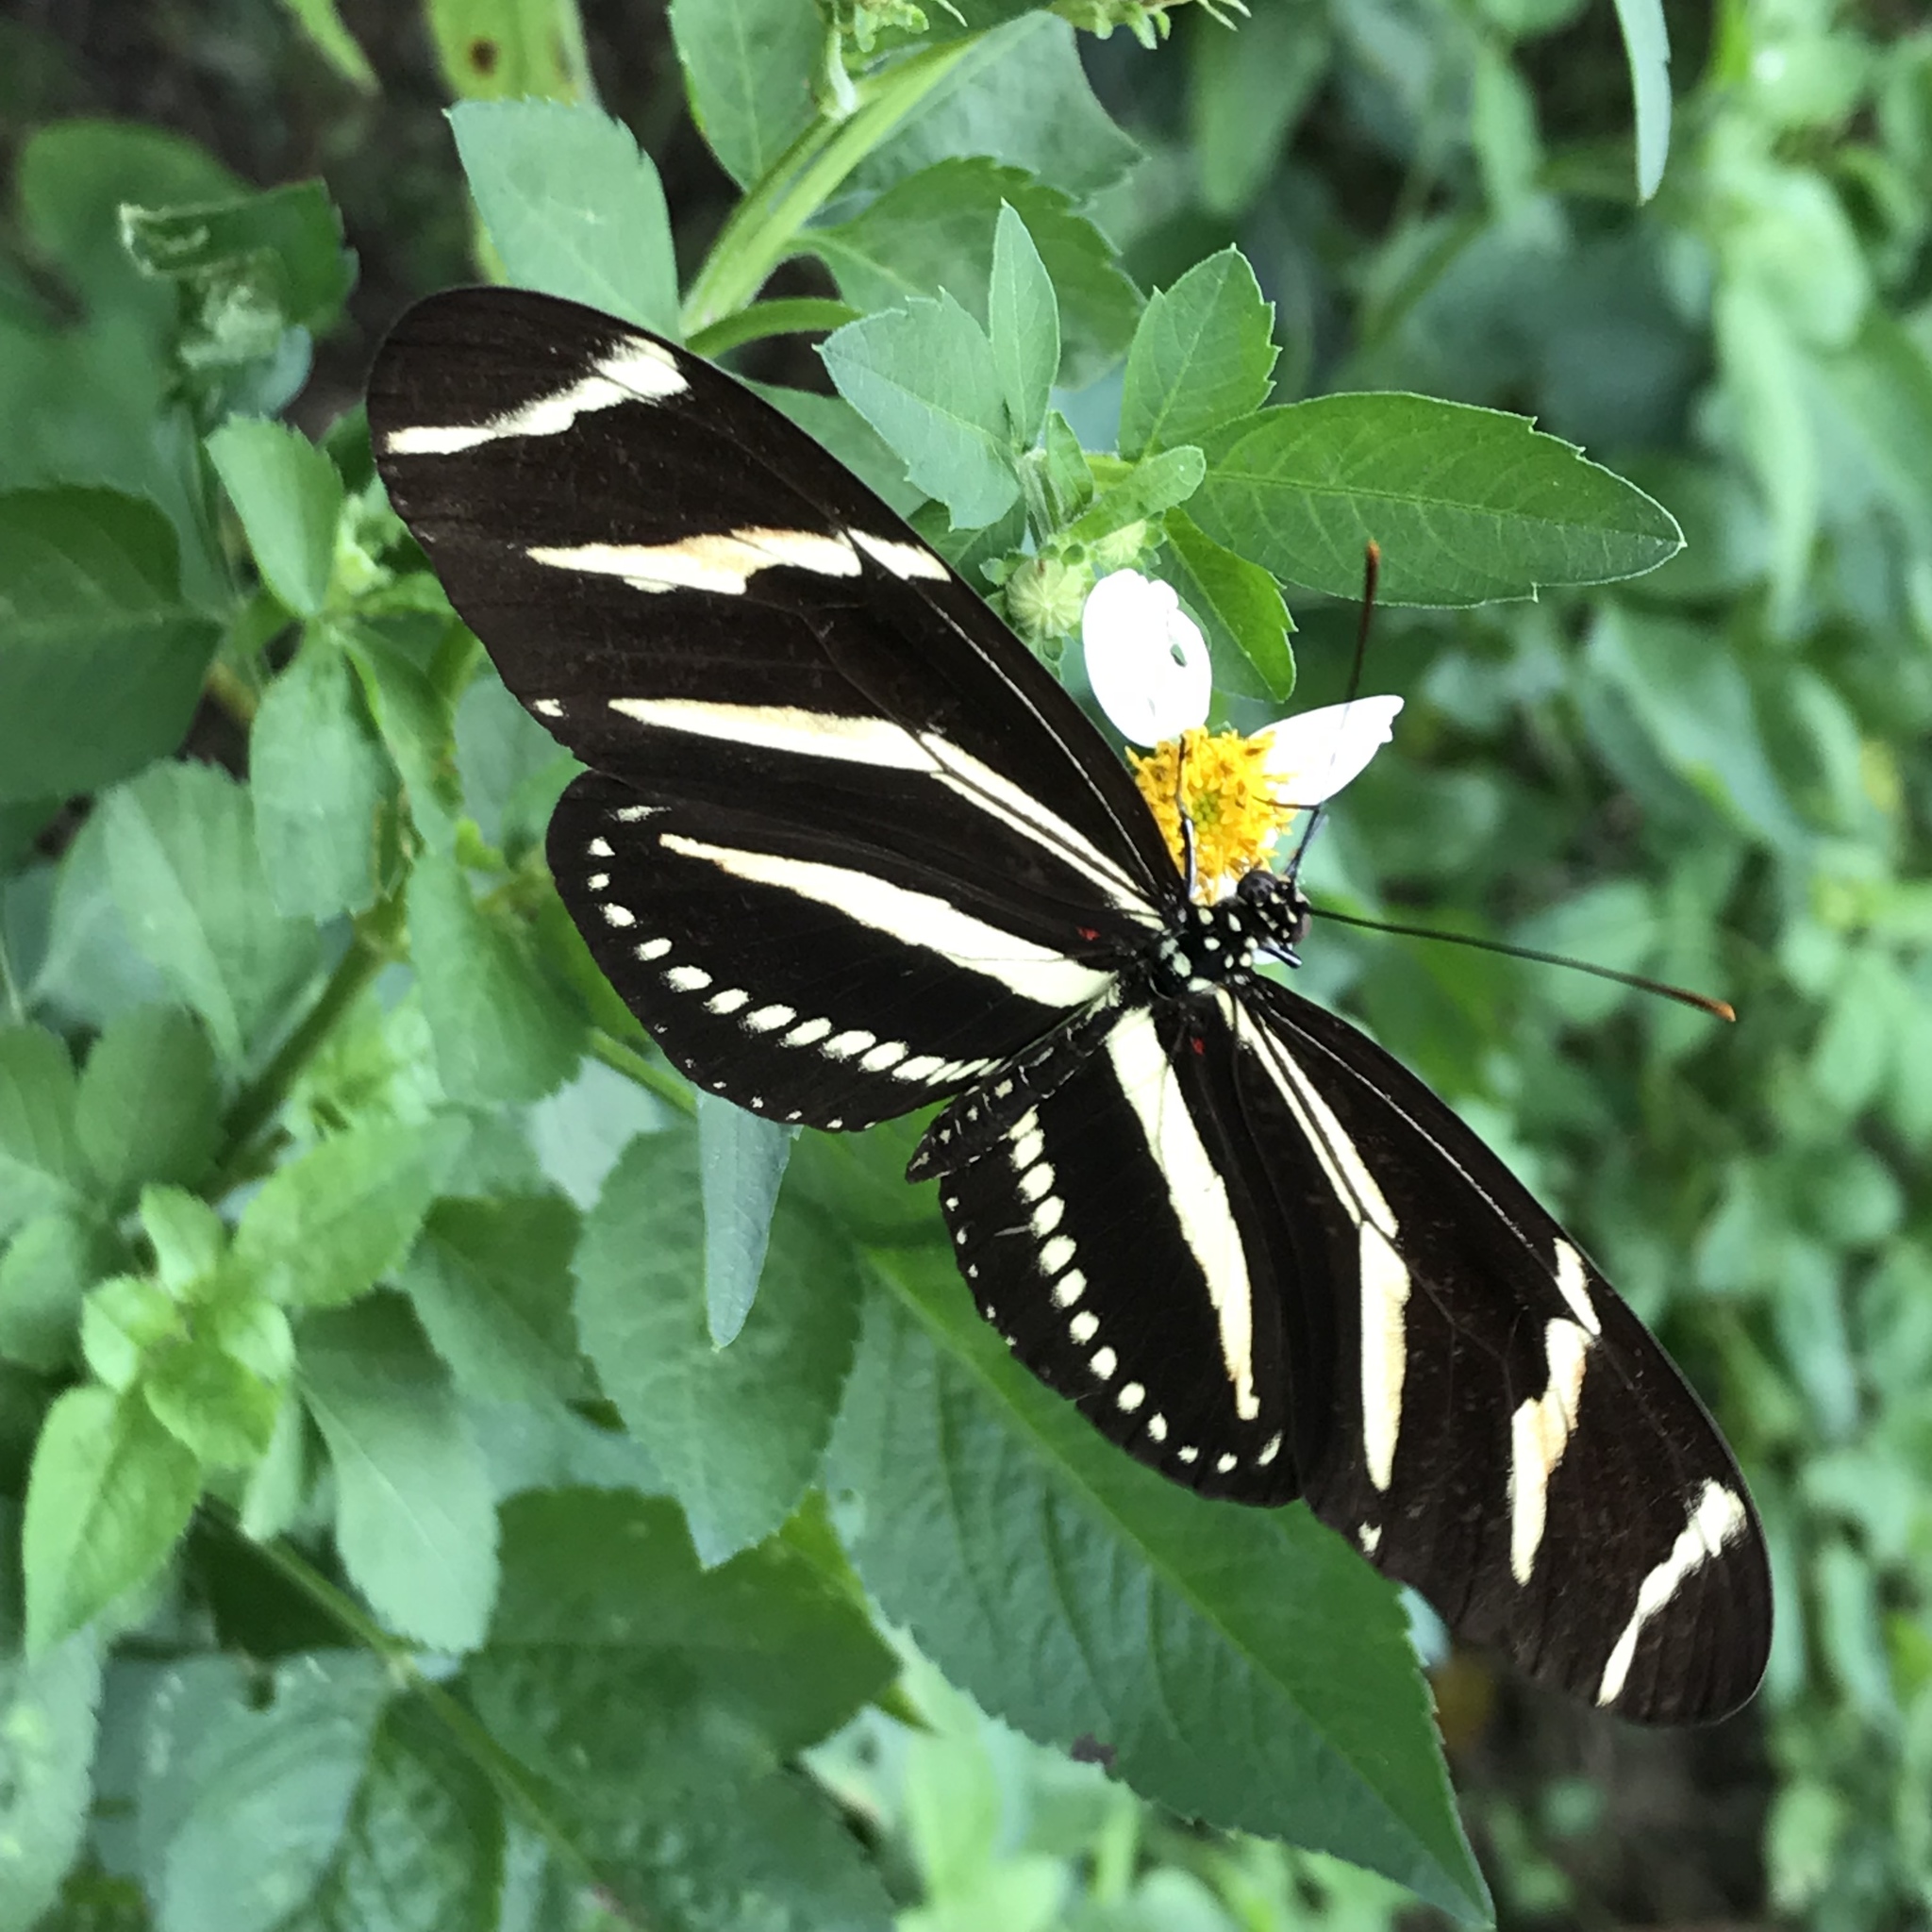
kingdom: Animalia
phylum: Arthropoda
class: Insecta
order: Lepidoptera
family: Nymphalidae
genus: Heliconius
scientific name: Heliconius charithonia
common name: Zebra long wing
